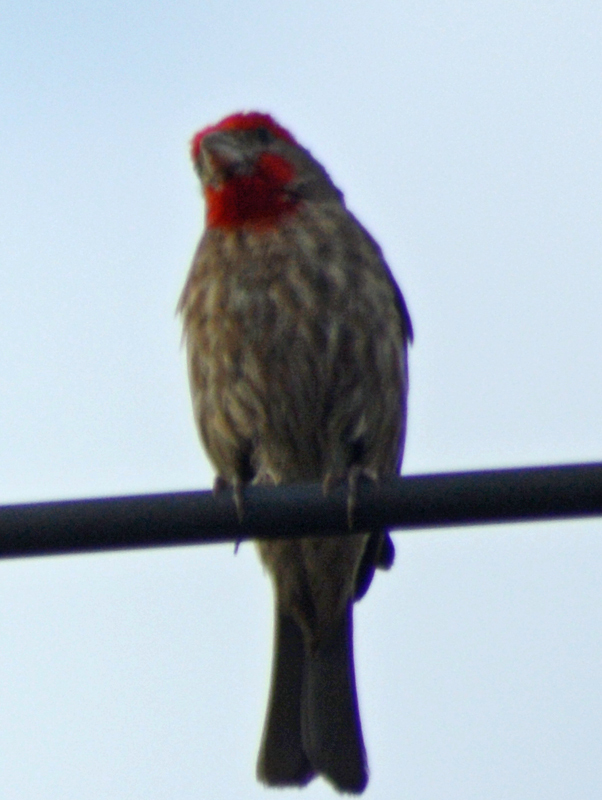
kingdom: Animalia
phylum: Chordata
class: Aves
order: Passeriformes
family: Fringillidae
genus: Haemorhous
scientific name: Haemorhous mexicanus
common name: House finch
